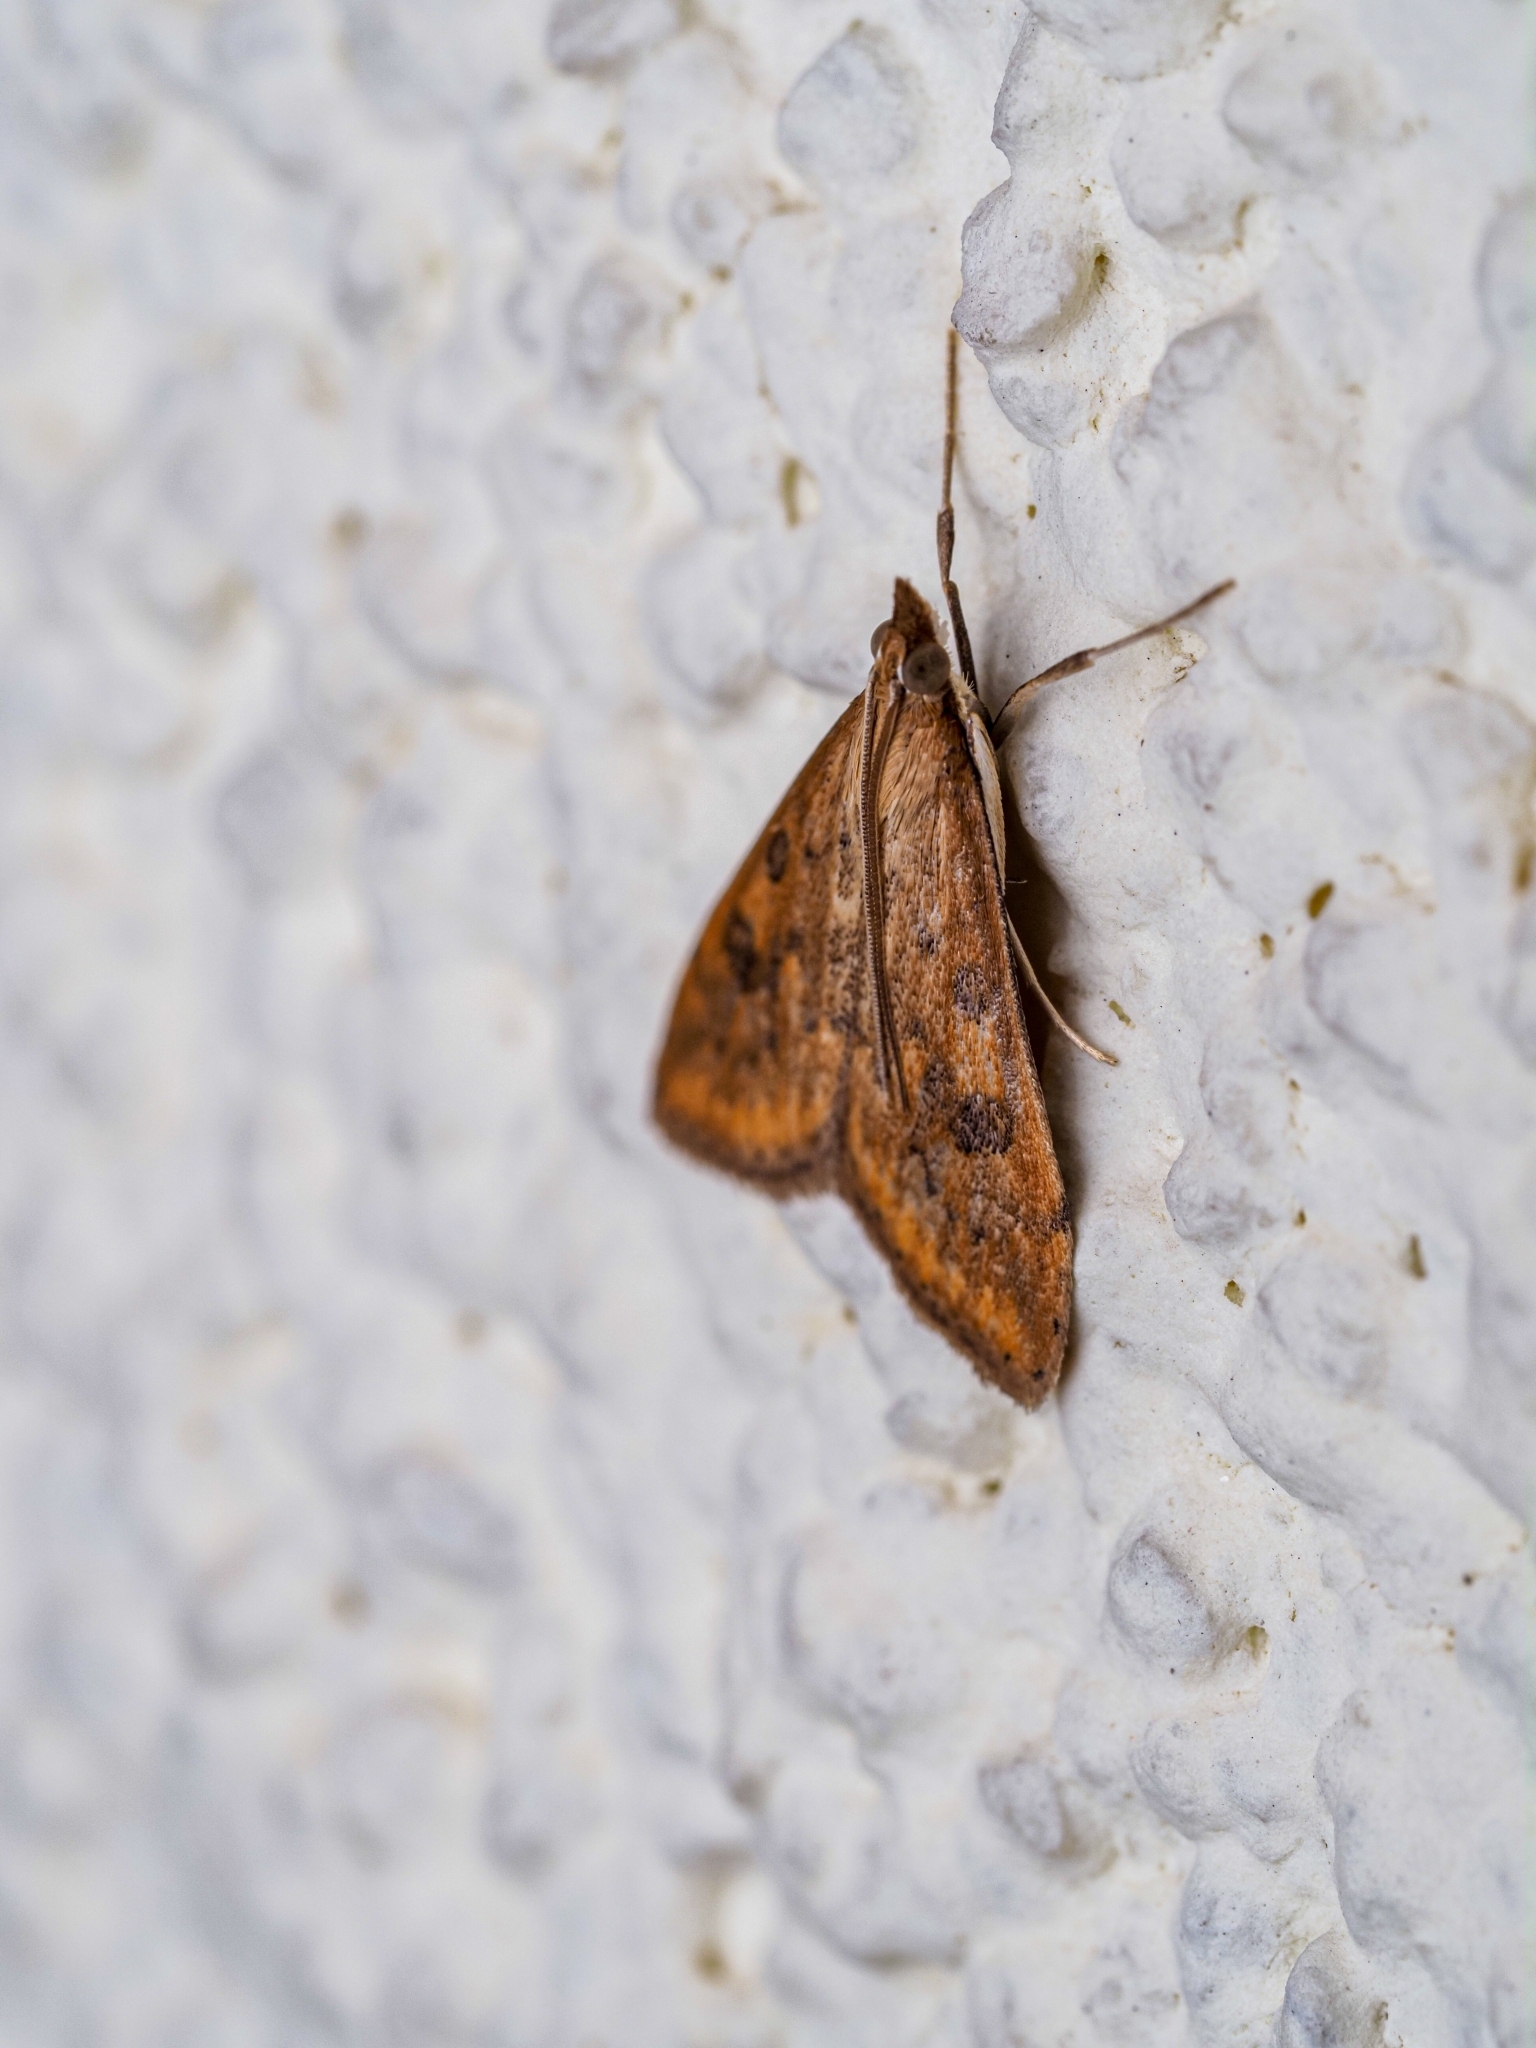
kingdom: Animalia
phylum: Arthropoda
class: Insecta
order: Lepidoptera
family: Crambidae
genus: Udea
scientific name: Udea ferrugalis
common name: Rusty dot
